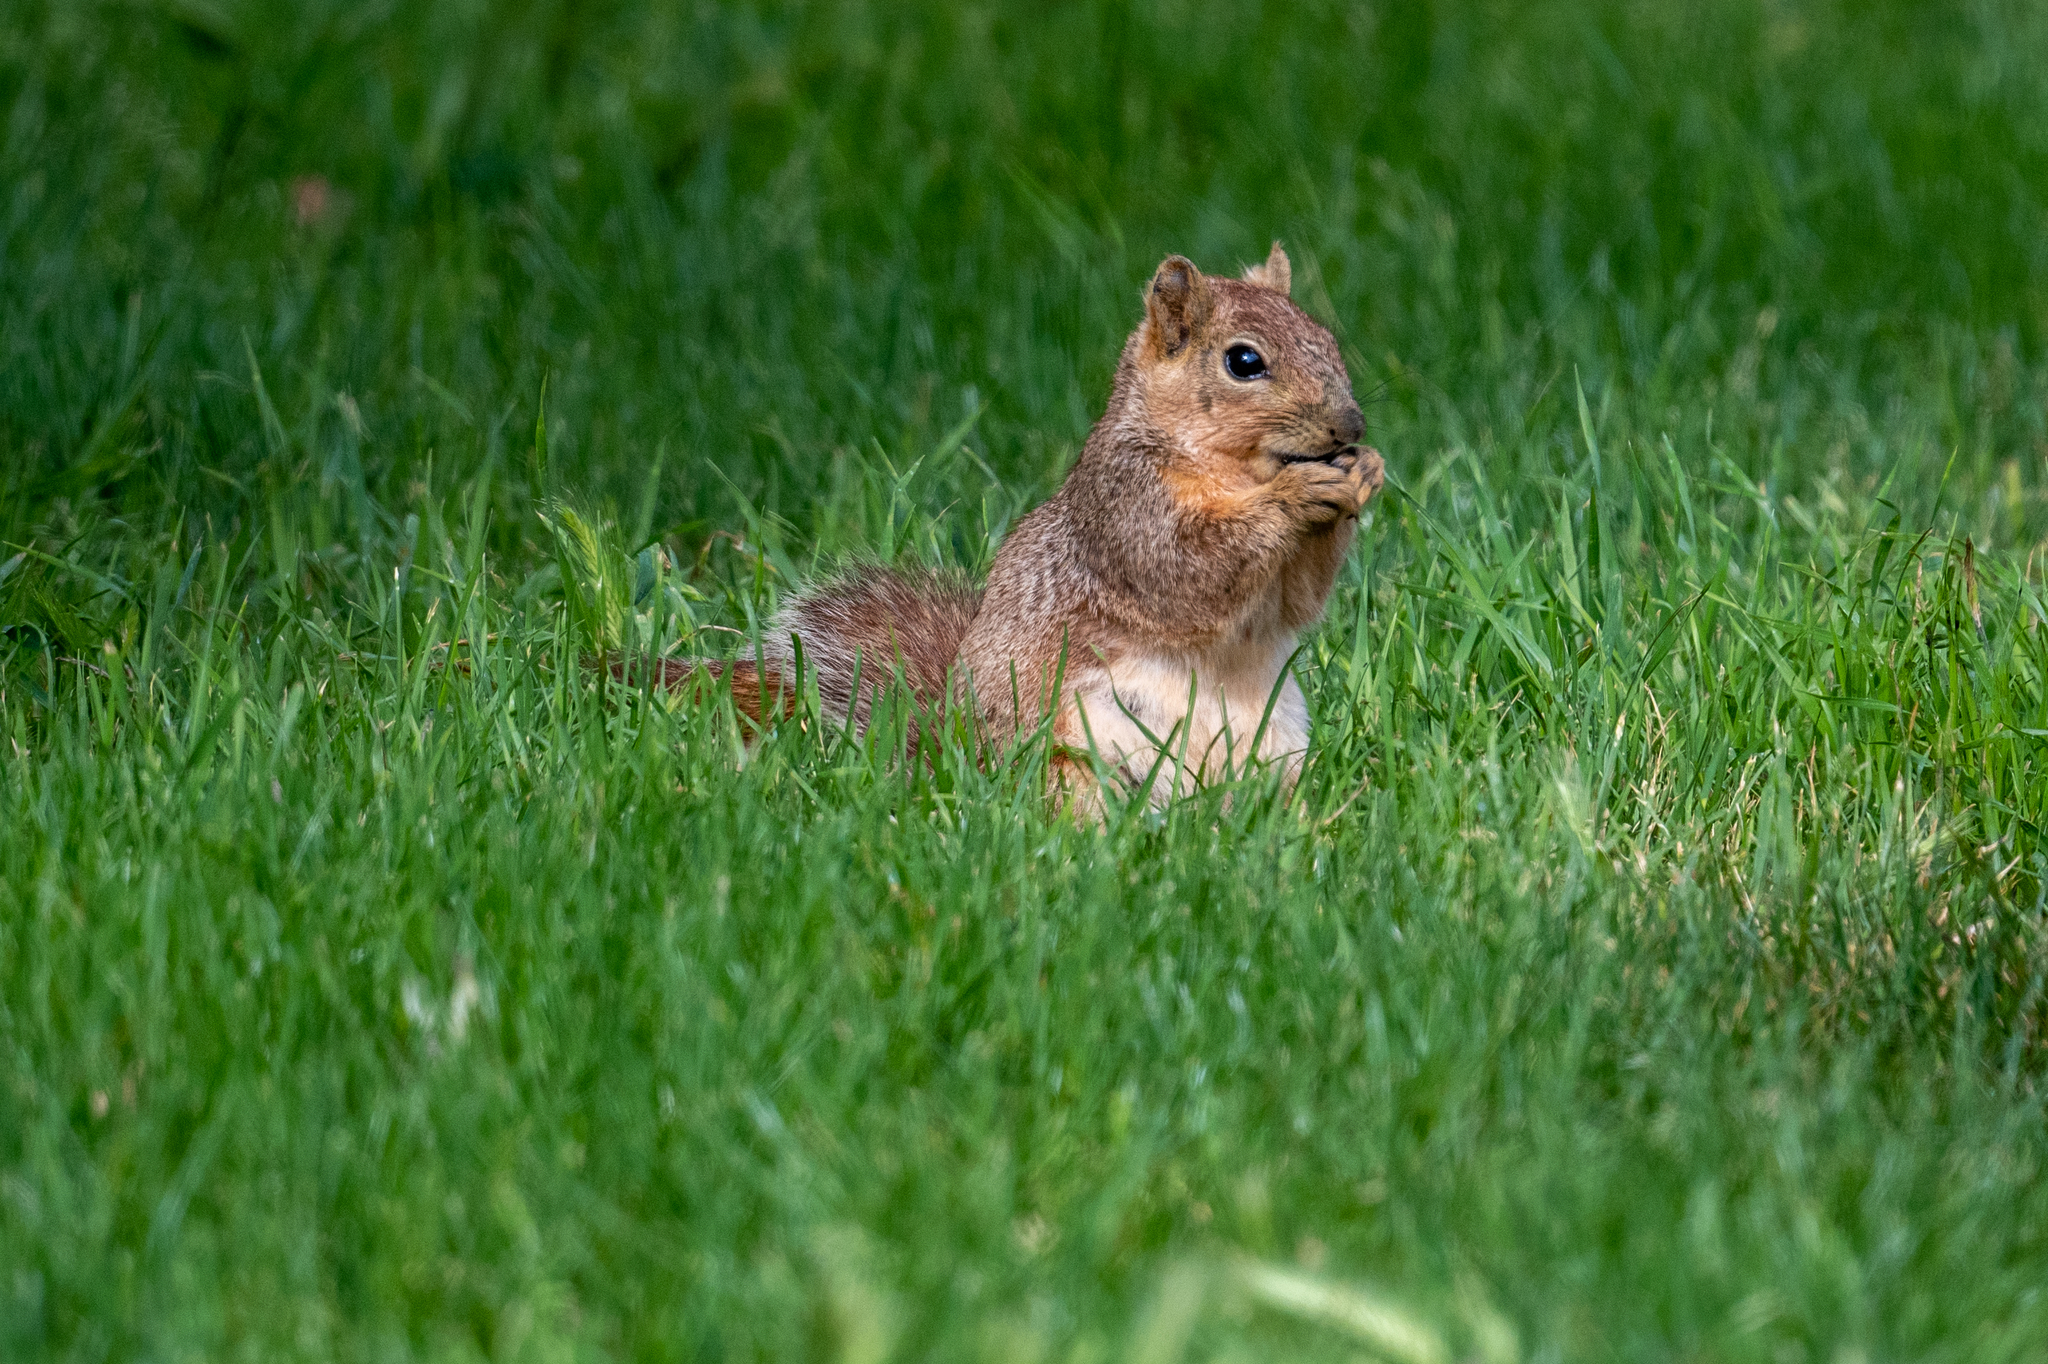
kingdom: Animalia
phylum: Chordata
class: Mammalia
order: Rodentia
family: Sciuridae
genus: Sciurus
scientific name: Sciurus niger
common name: Fox squirrel
